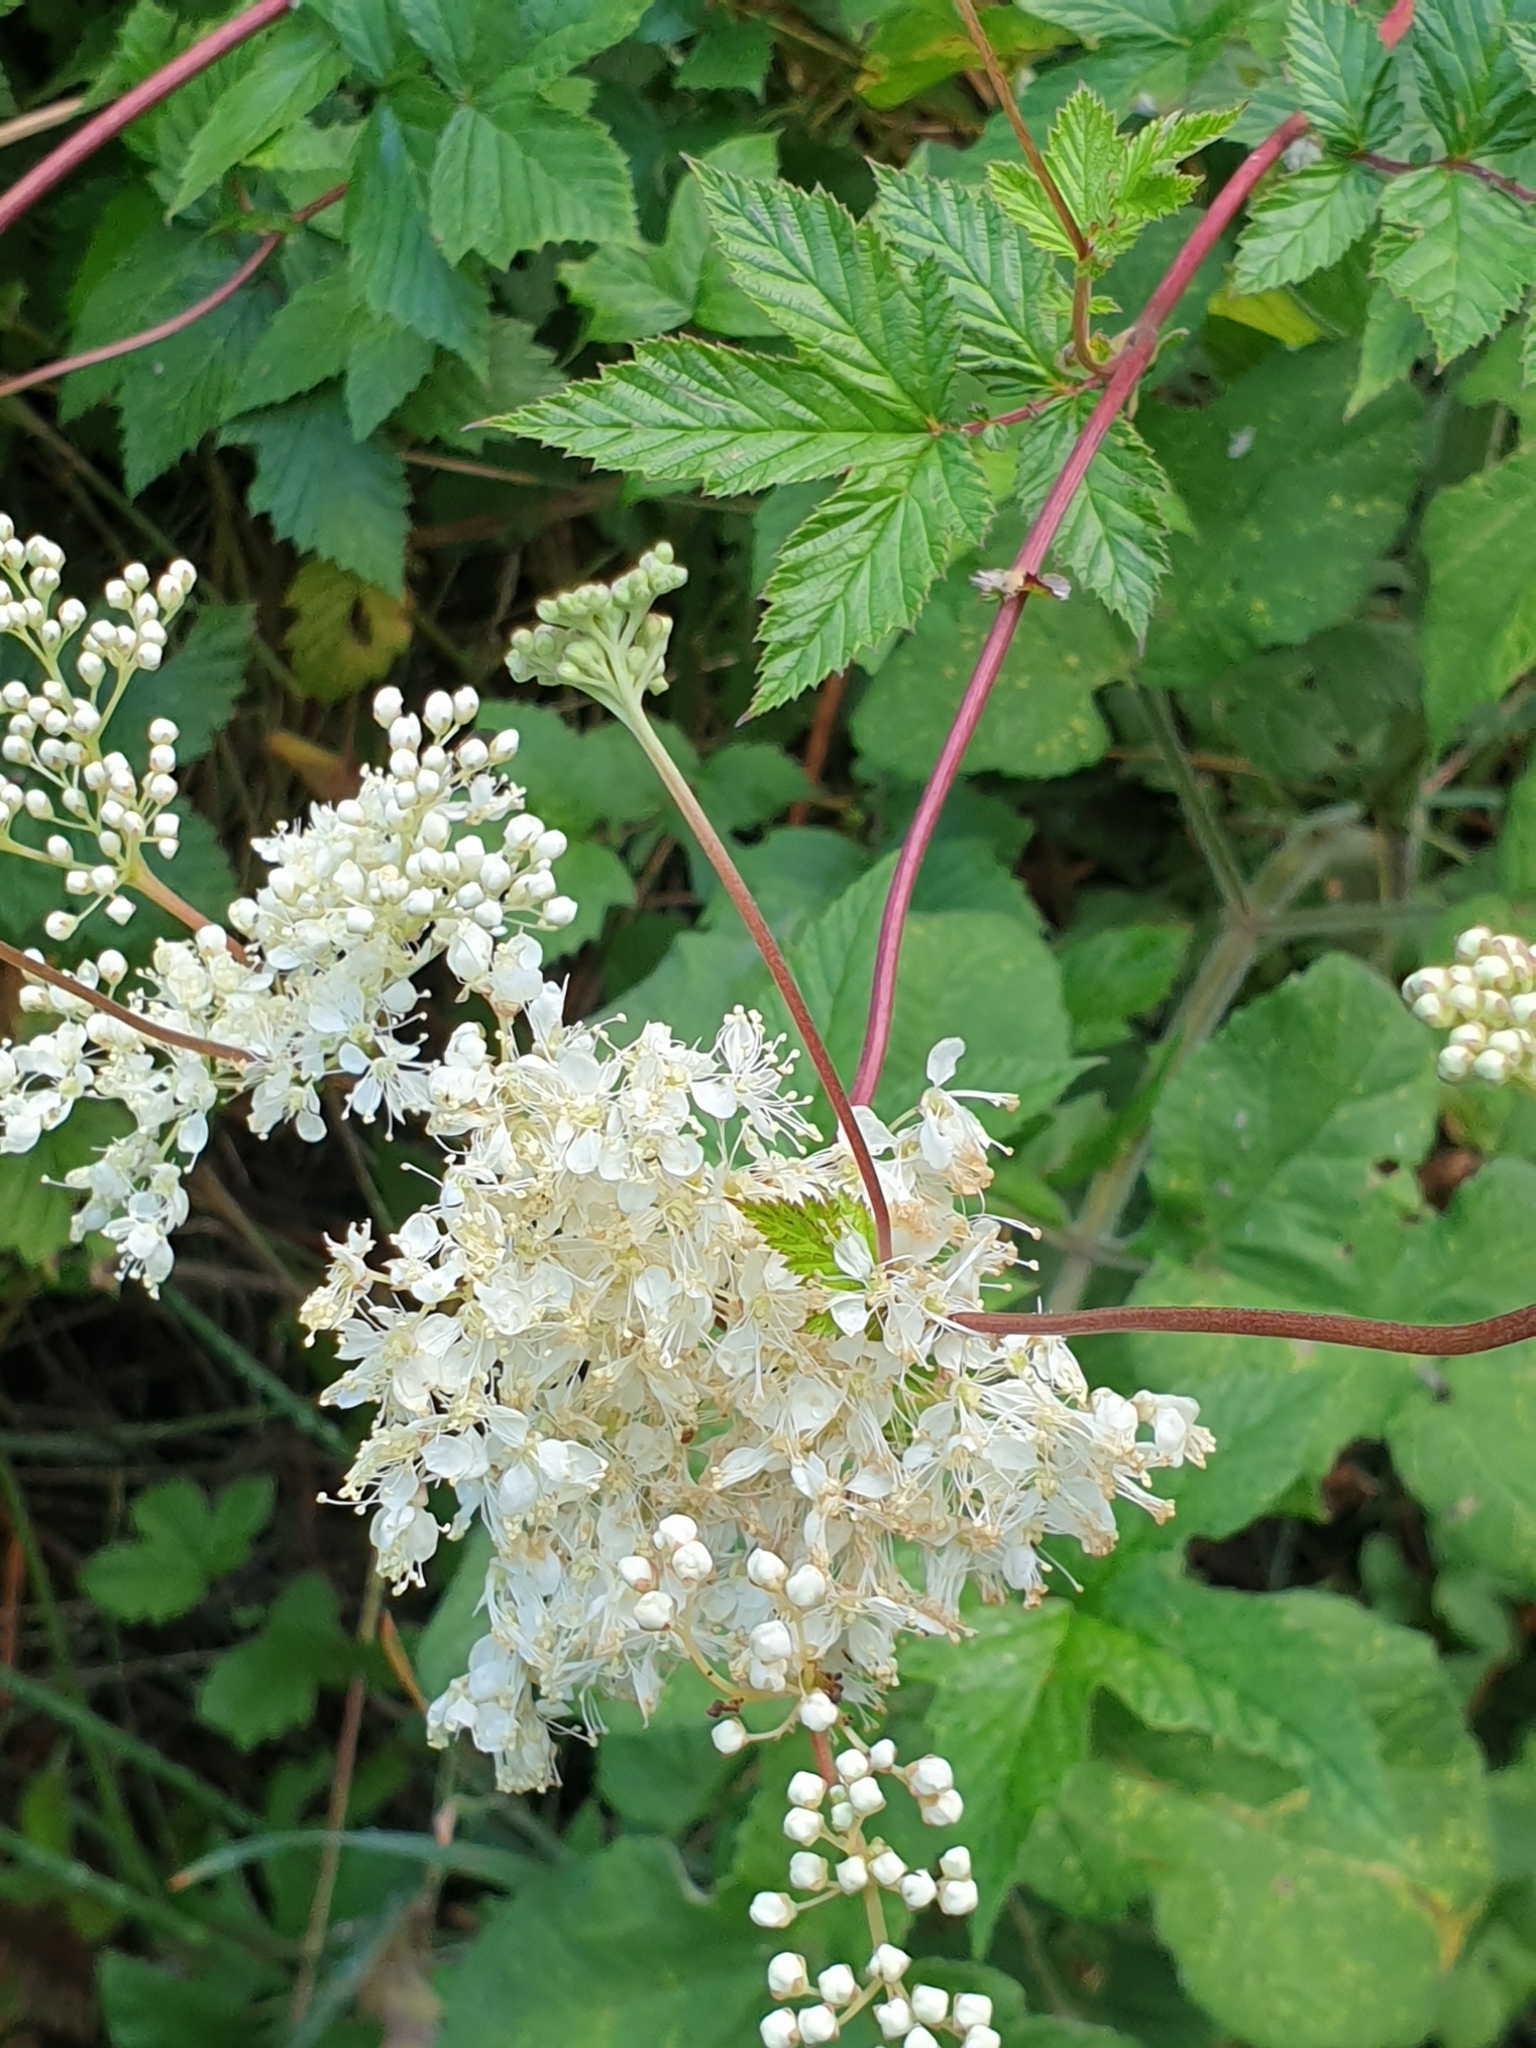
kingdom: Plantae
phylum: Tracheophyta
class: Magnoliopsida
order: Rosales
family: Rosaceae
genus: Filipendula
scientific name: Filipendula ulmaria
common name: Meadowsweet
